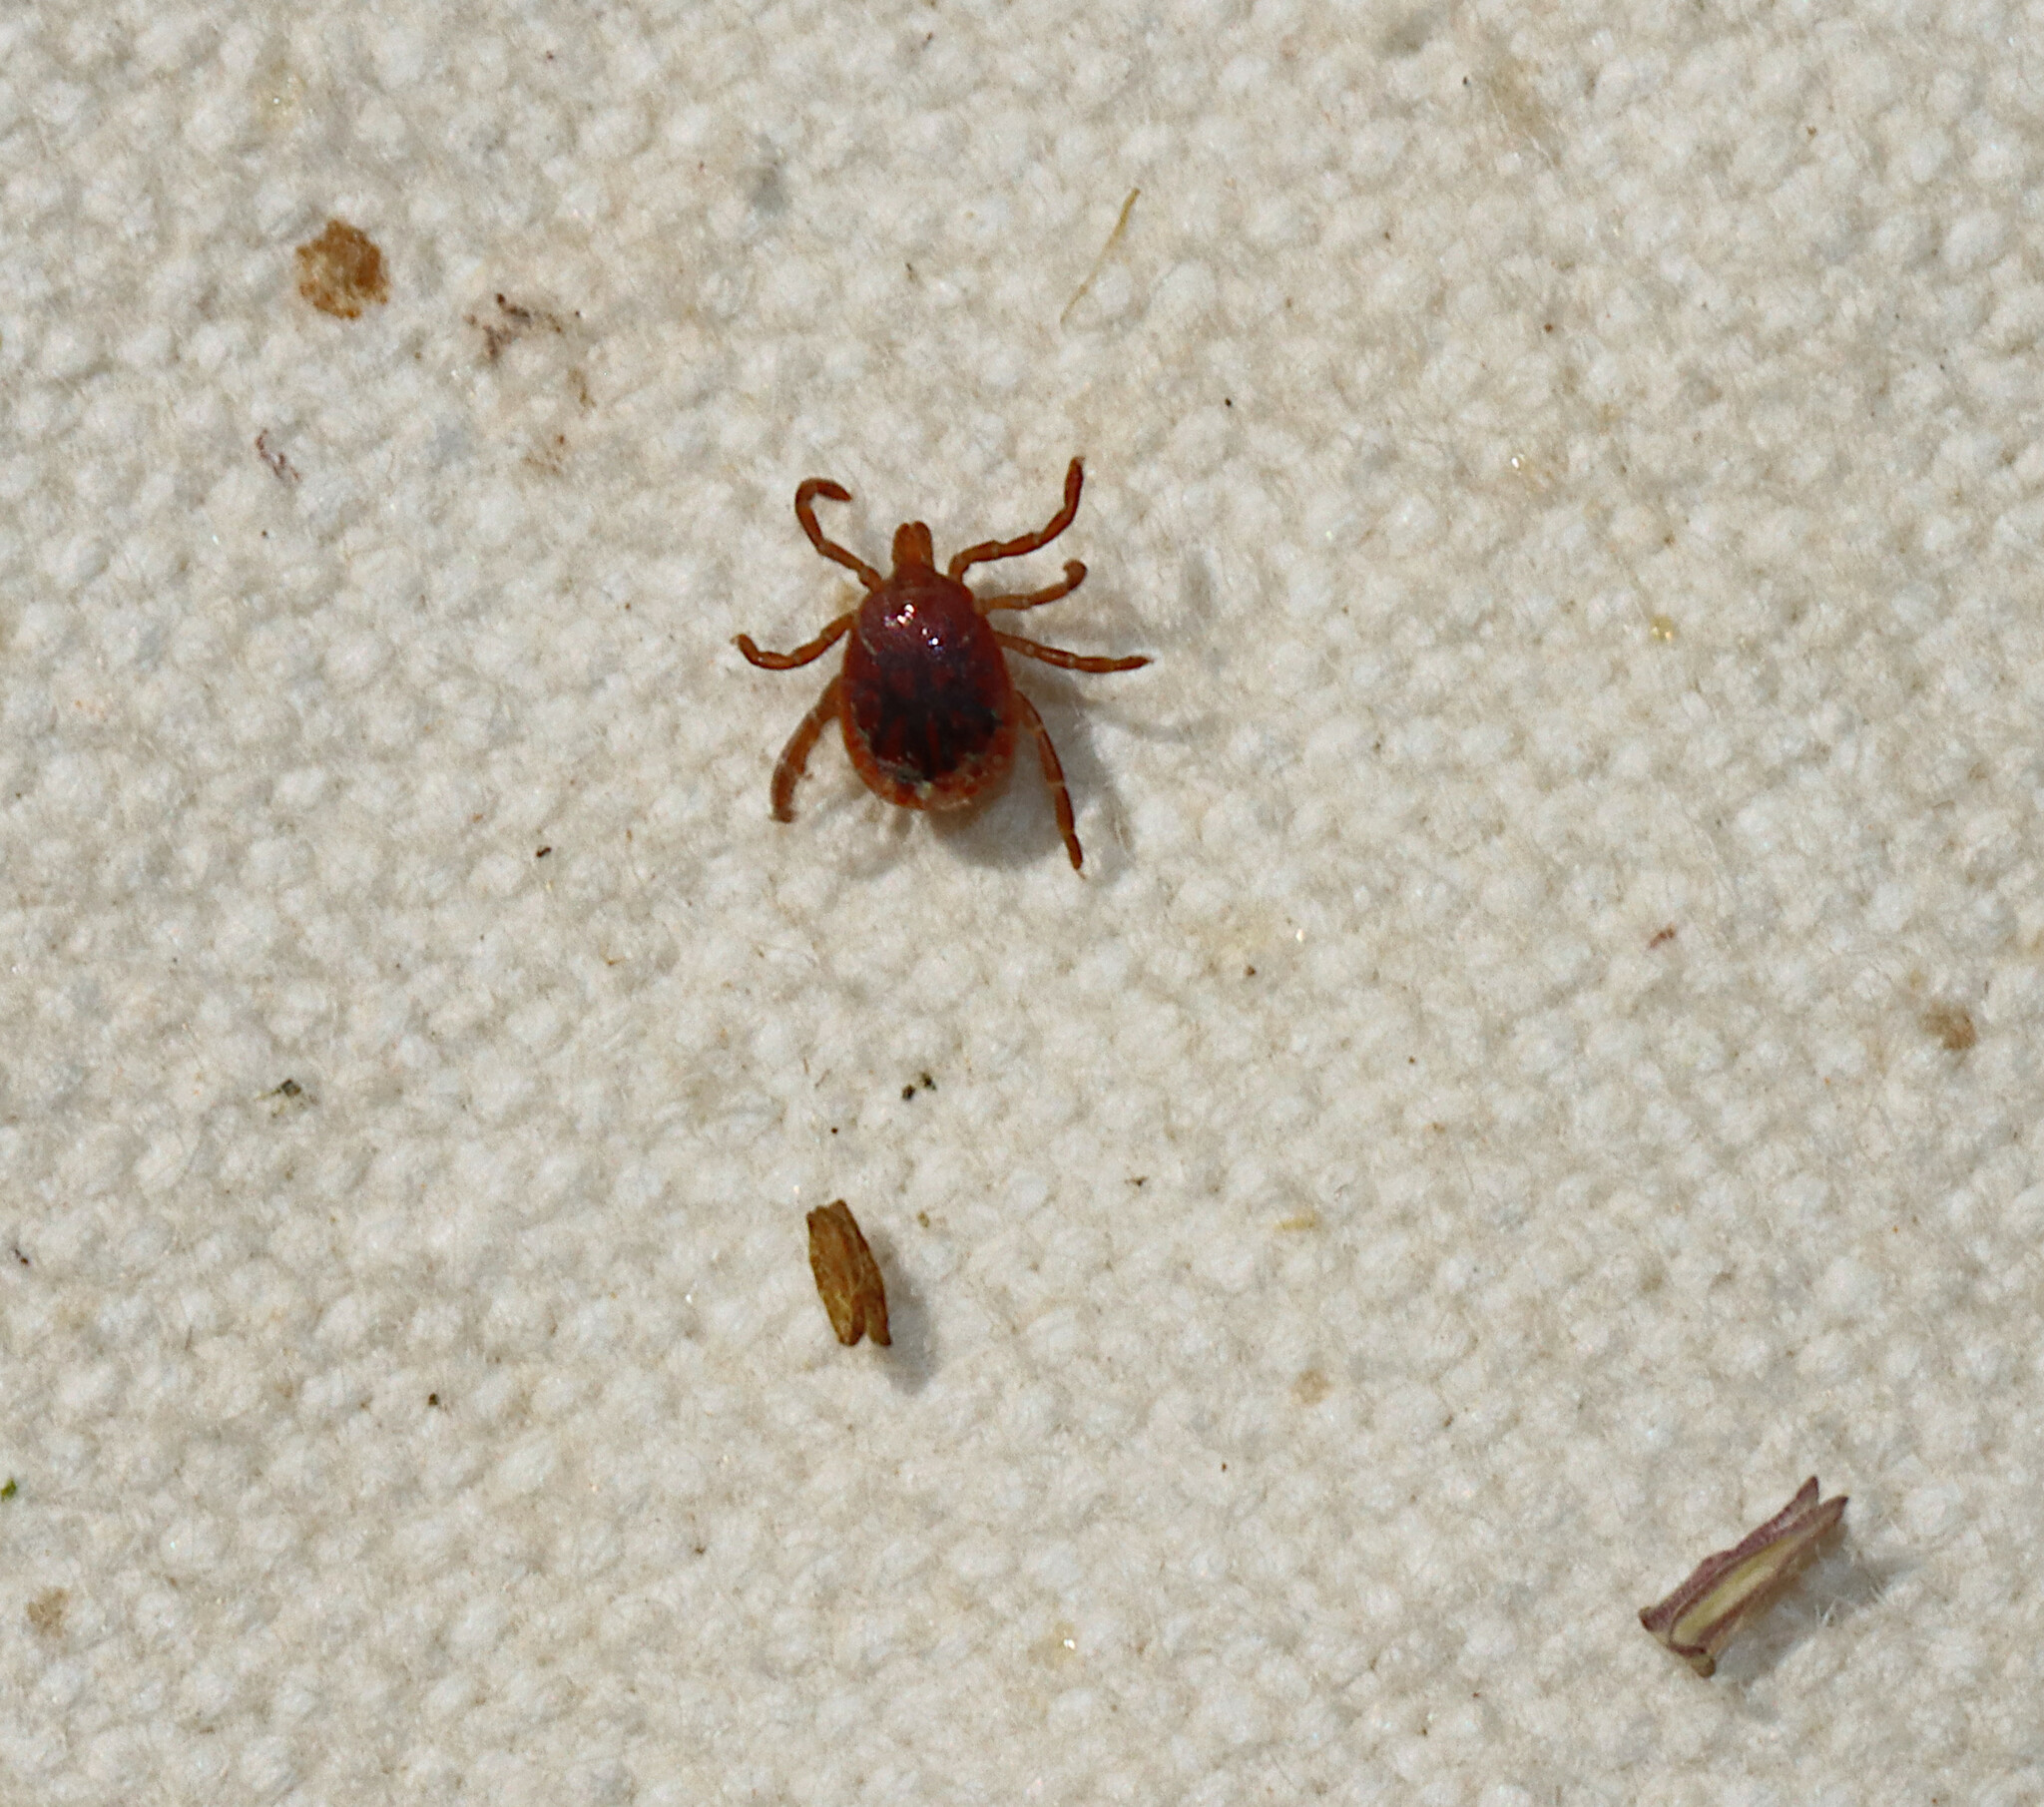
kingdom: Animalia
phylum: Arthropoda
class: Arachnida
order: Ixodida
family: Ixodidae
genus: Amblyomma
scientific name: Amblyomma americanum
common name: Lone star tick
